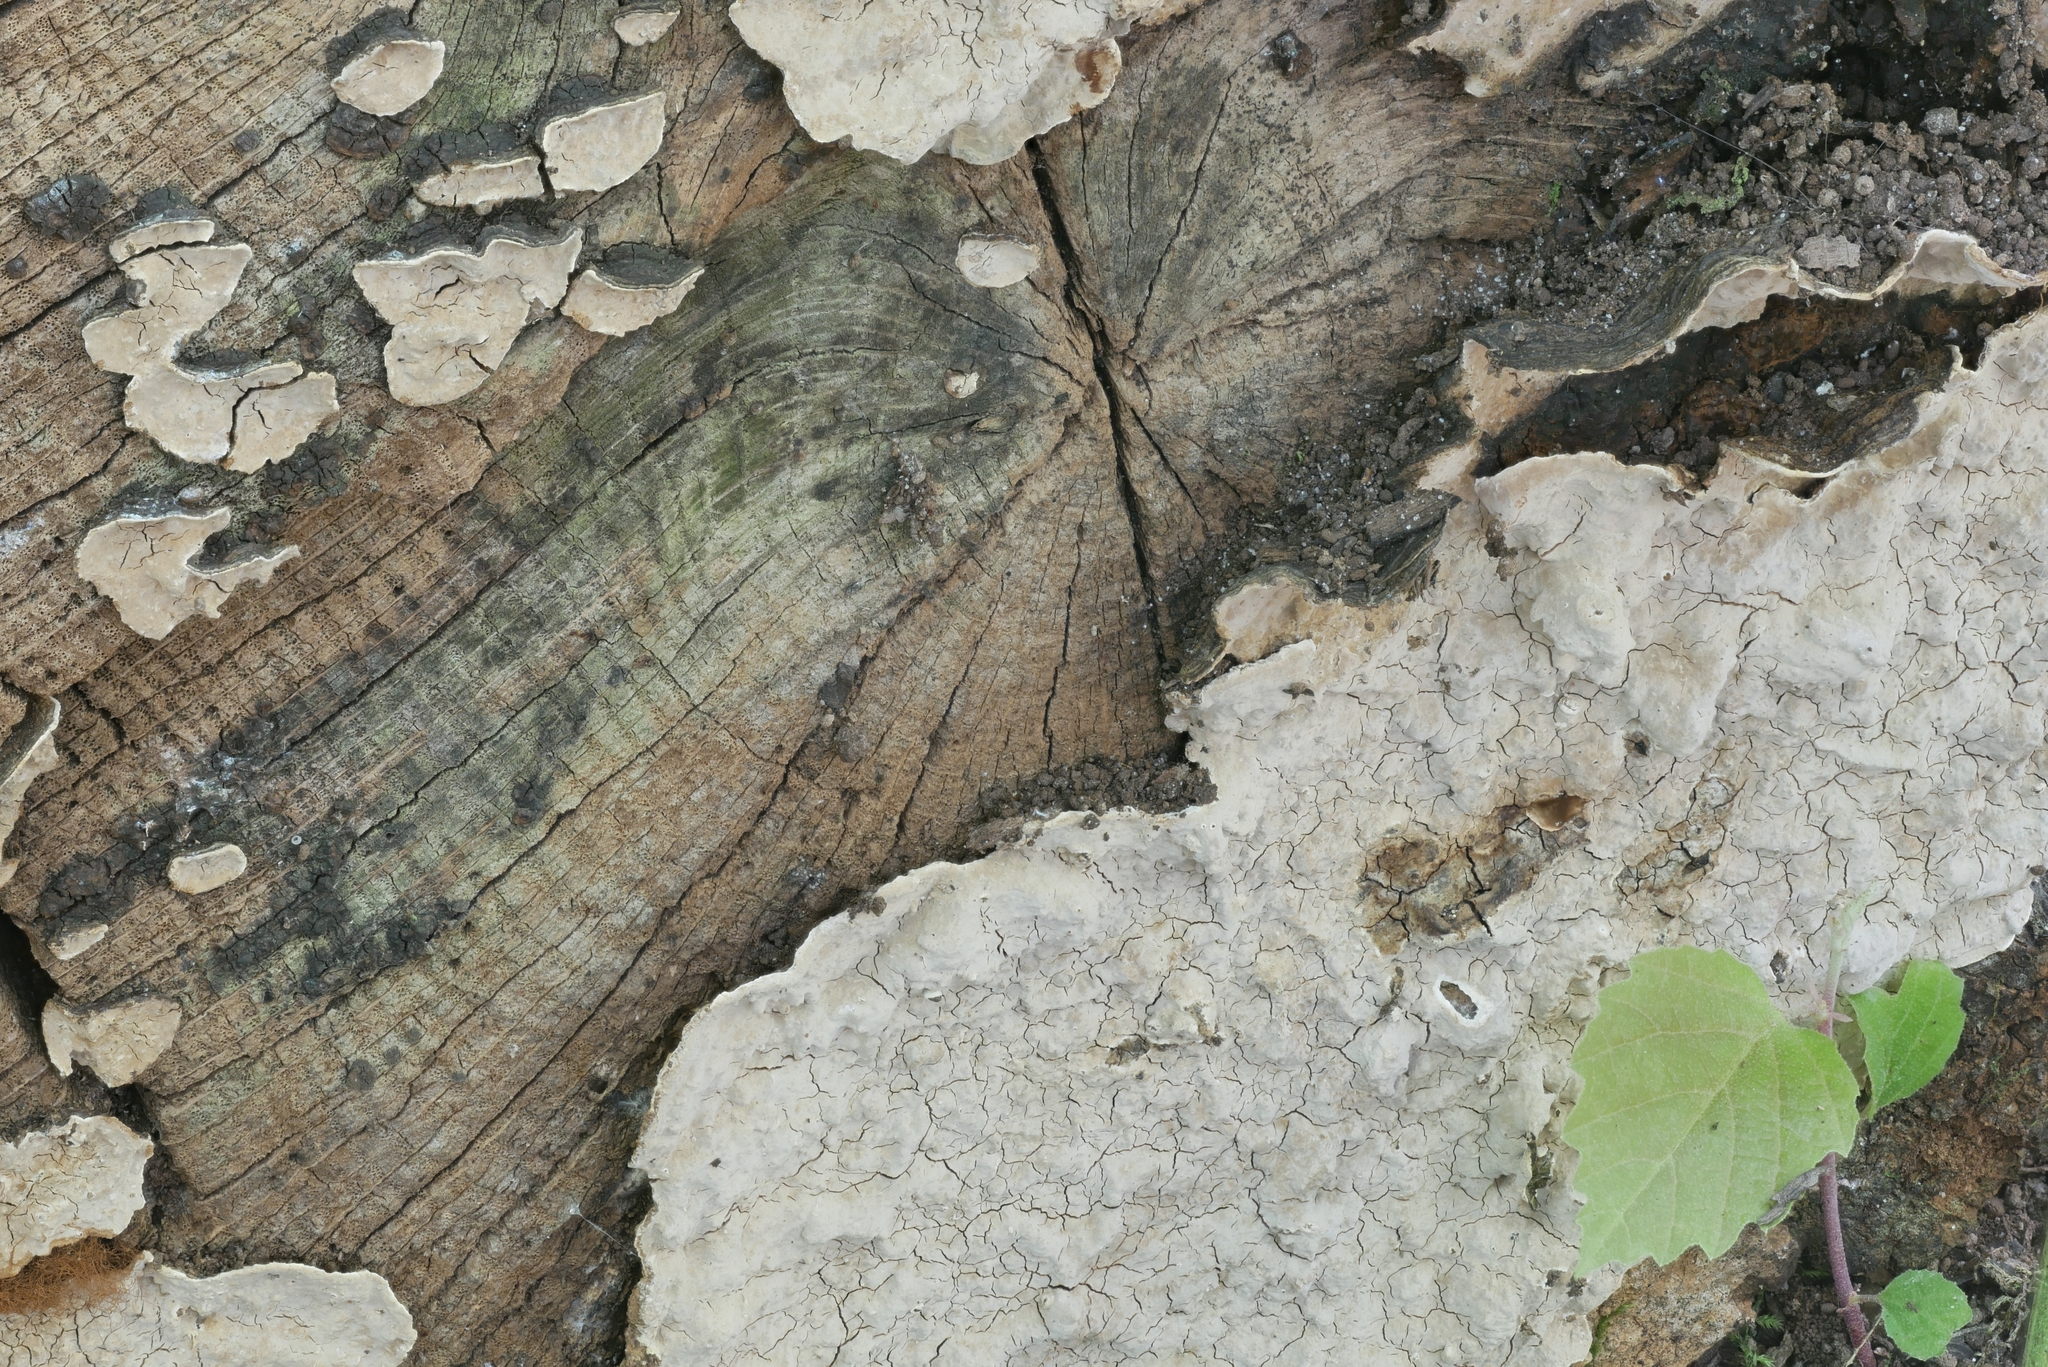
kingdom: Fungi
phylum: Basidiomycota
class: Agaricomycetes
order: Russulales
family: Stereaceae
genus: Xylobolus
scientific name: Xylobolus subpileatus
